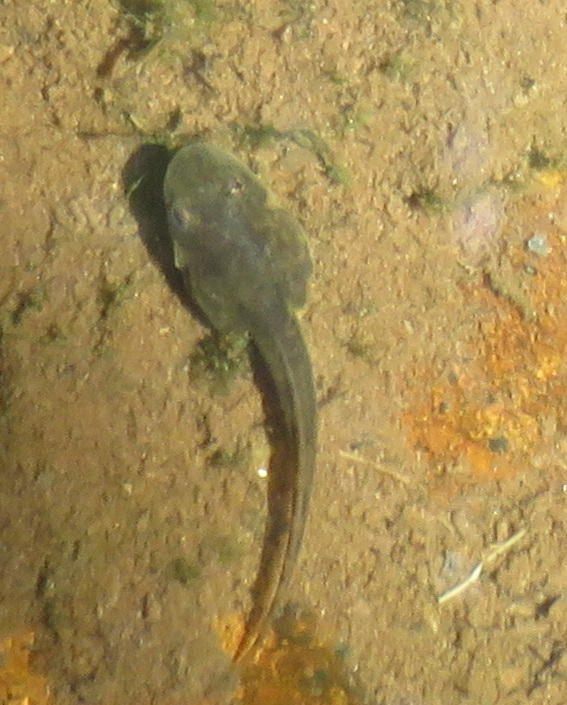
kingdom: Animalia
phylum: Chordata
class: Amphibia
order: Anura
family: Pyxicephalidae
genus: Amietia
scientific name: Amietia fuscigula
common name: Cape rana
